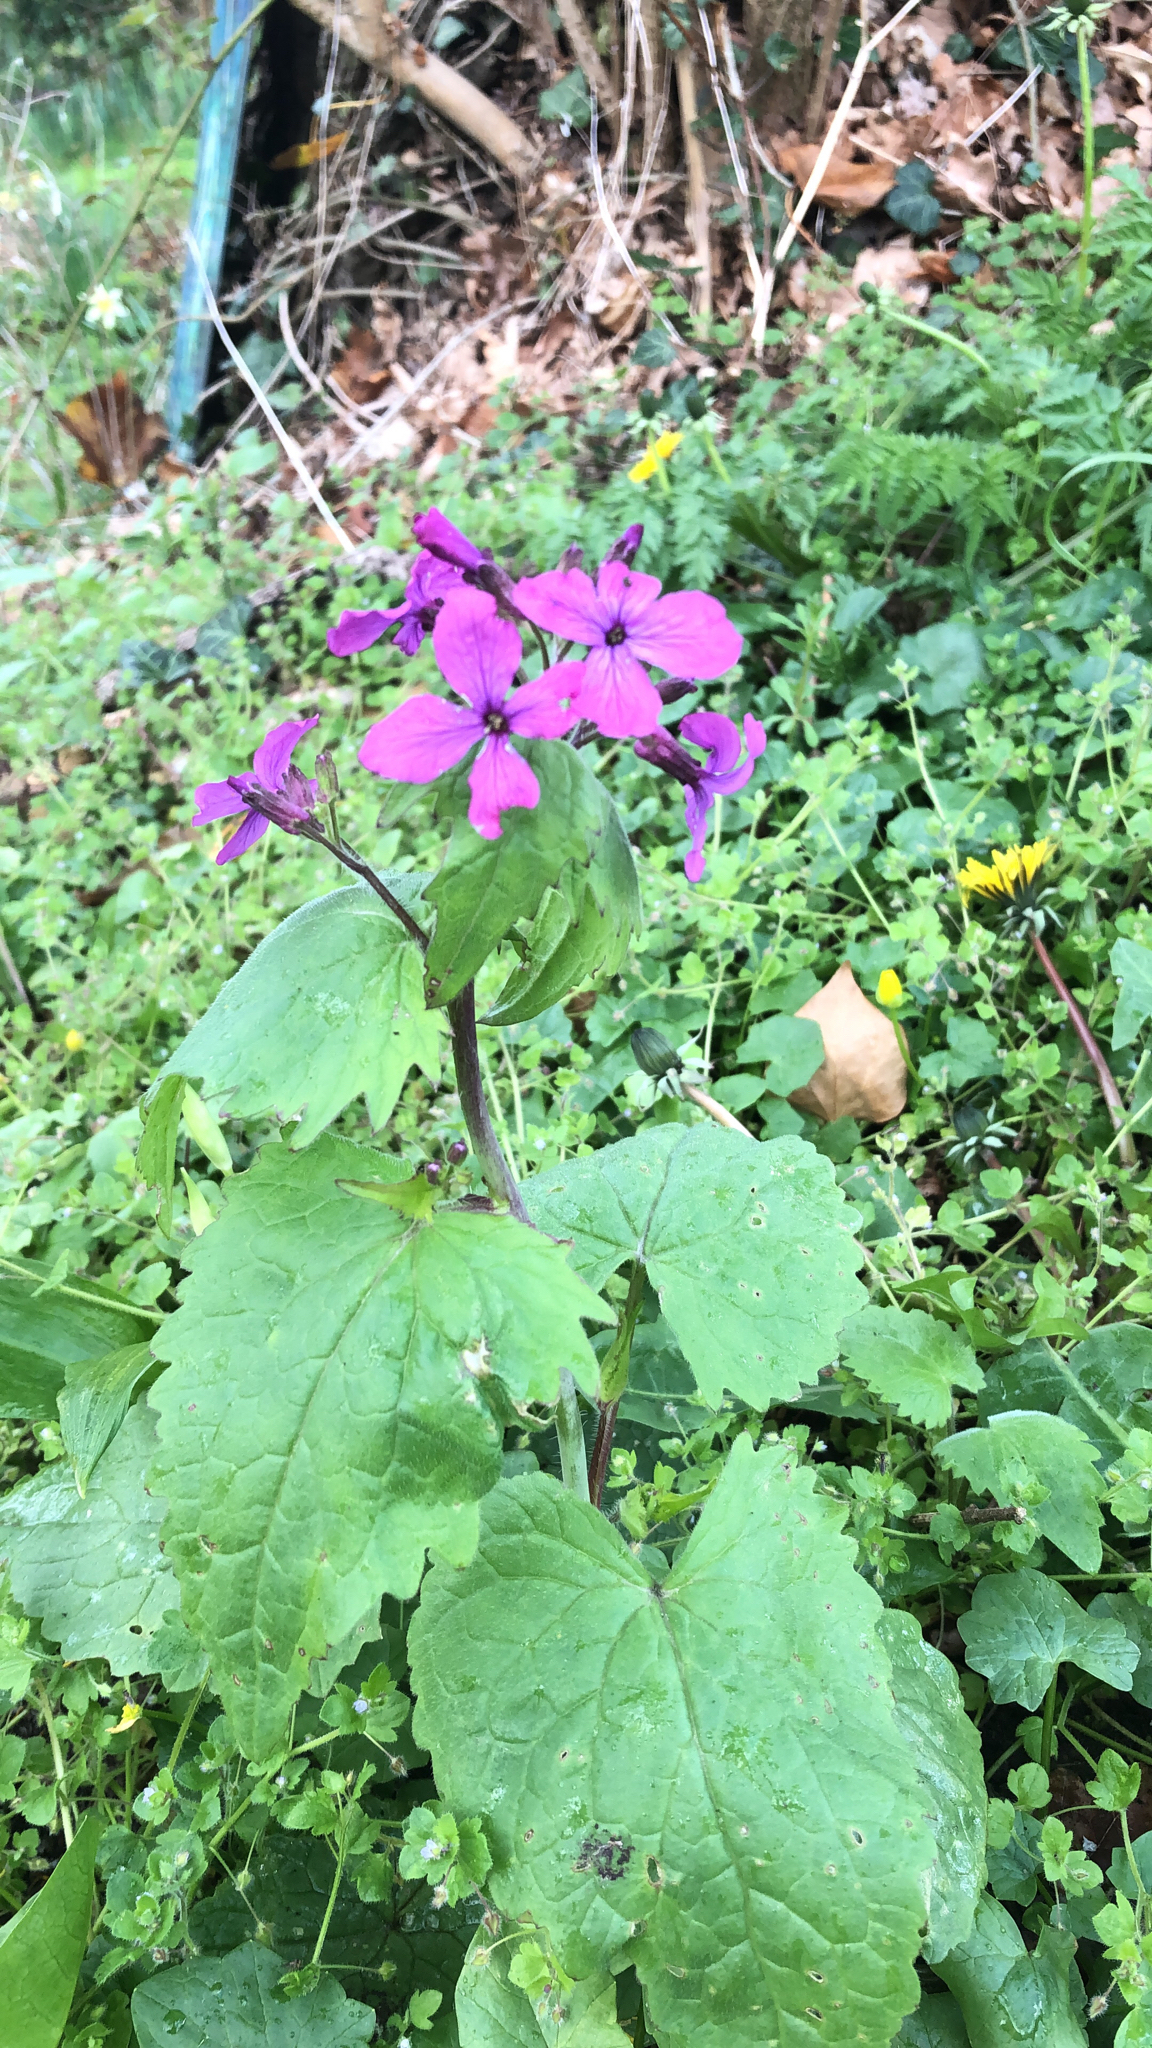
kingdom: Plantae
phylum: Tracheophyta
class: Magnoliopsida
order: Brassicales
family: Brassicaceae
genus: Lunaria
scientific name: Lunaria annua
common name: Honesty
